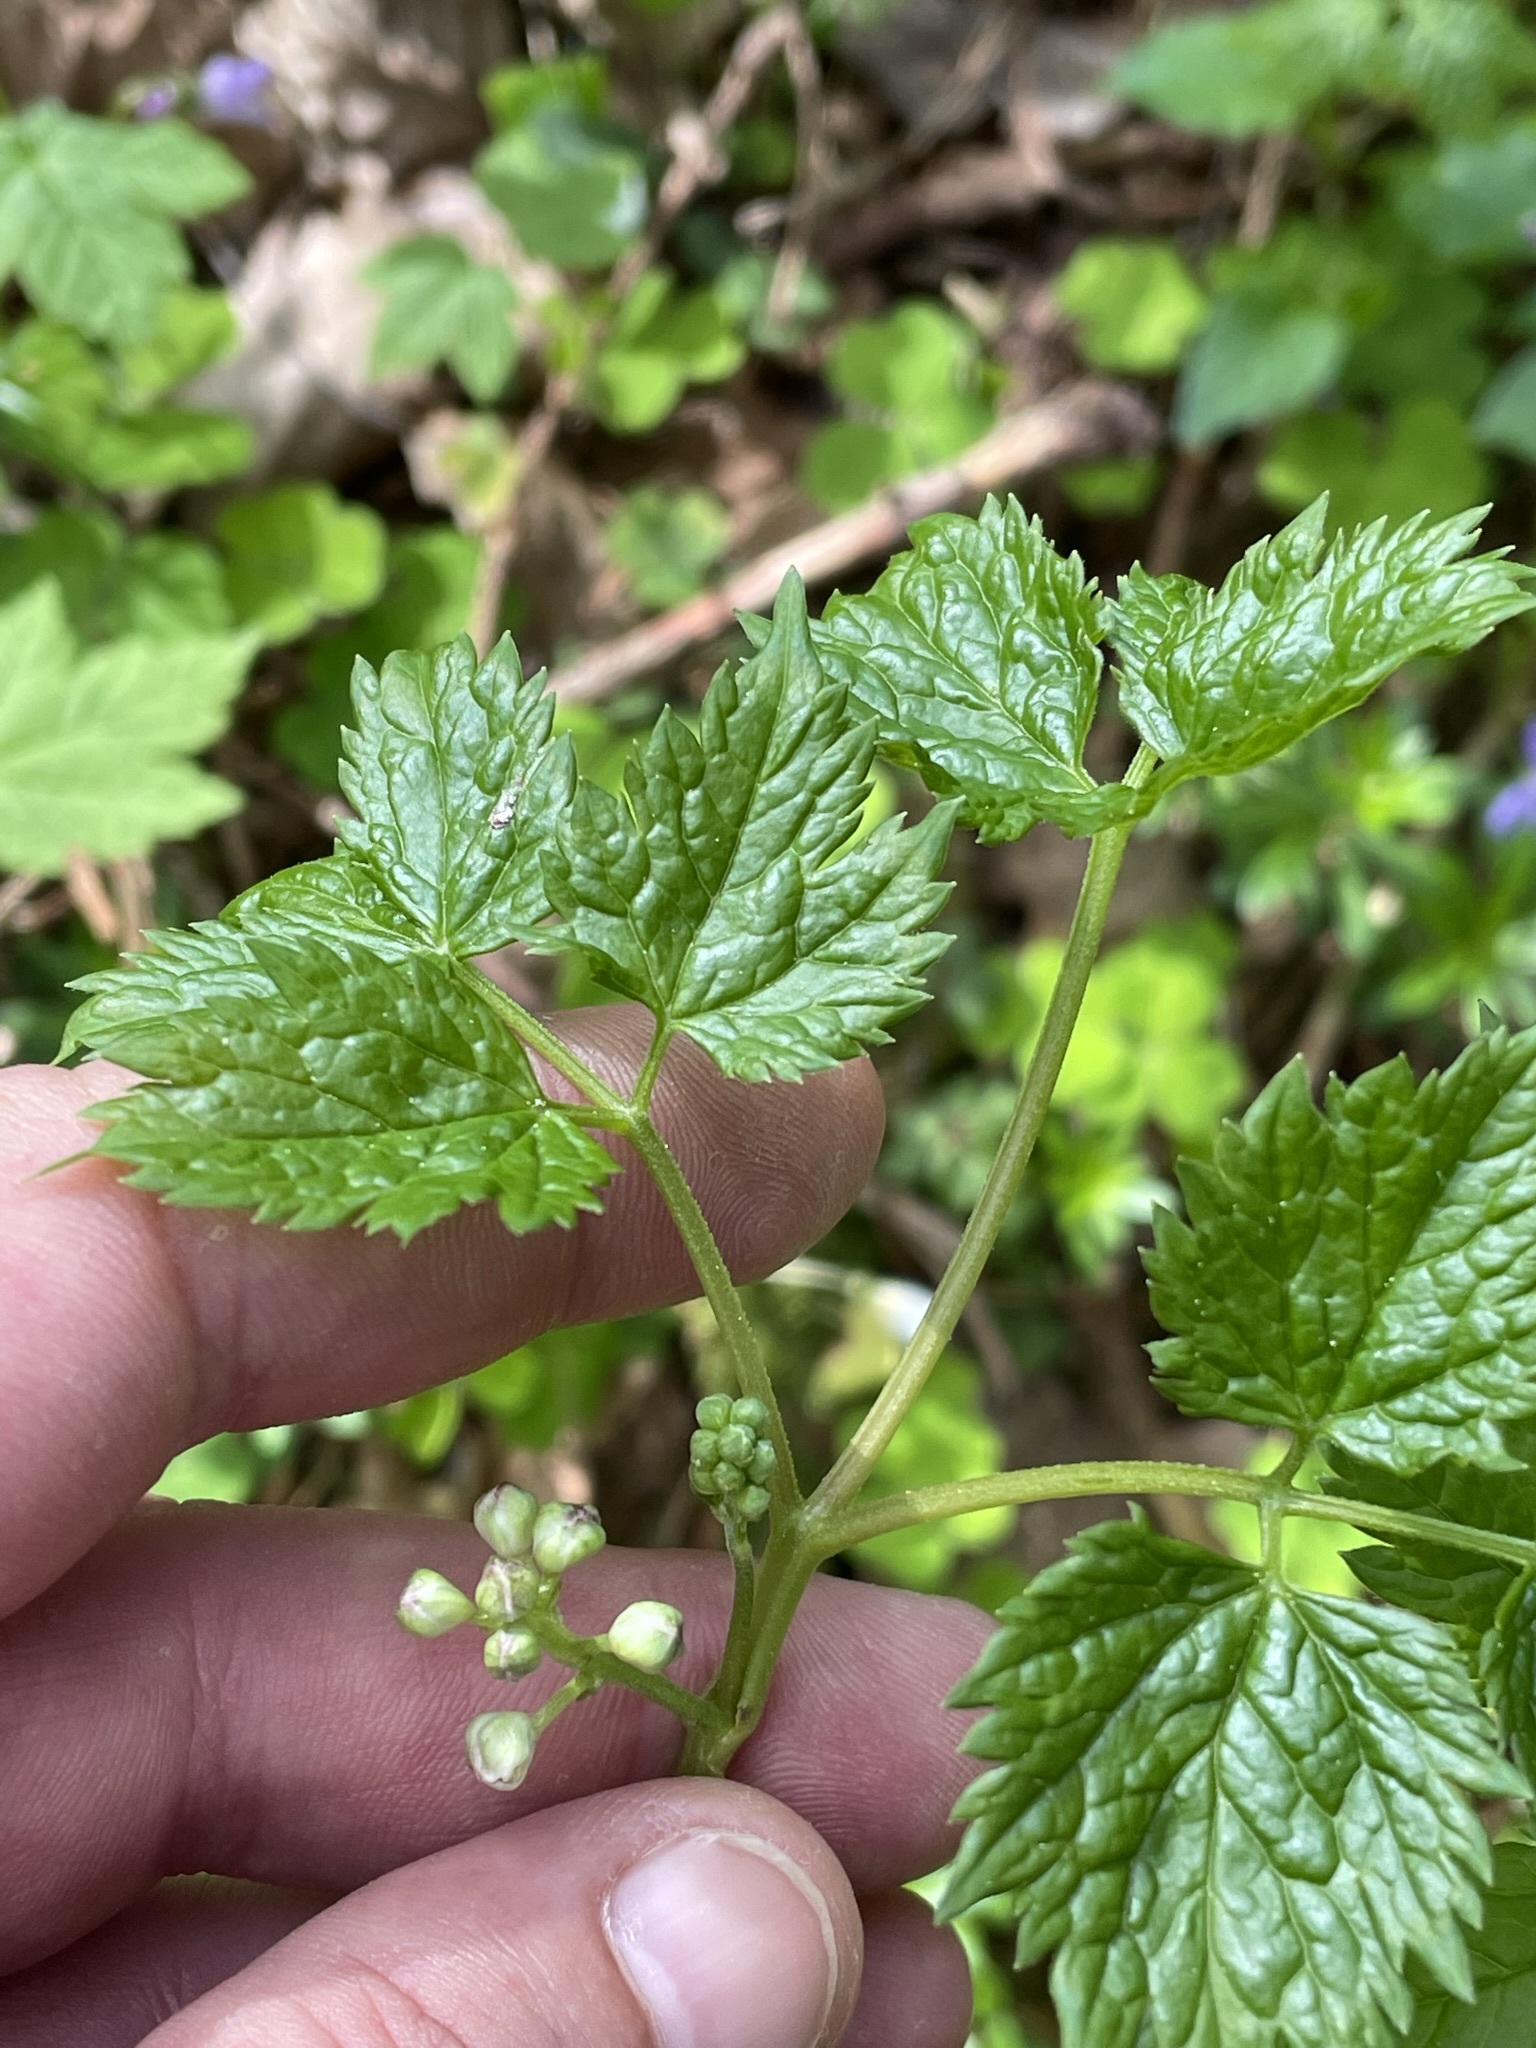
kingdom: Plantae
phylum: Tracheophyta
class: Magnoliopsida
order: Ranunculales
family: Ranunculaceae
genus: Actaea
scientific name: Actaea spicata
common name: Baneberry
